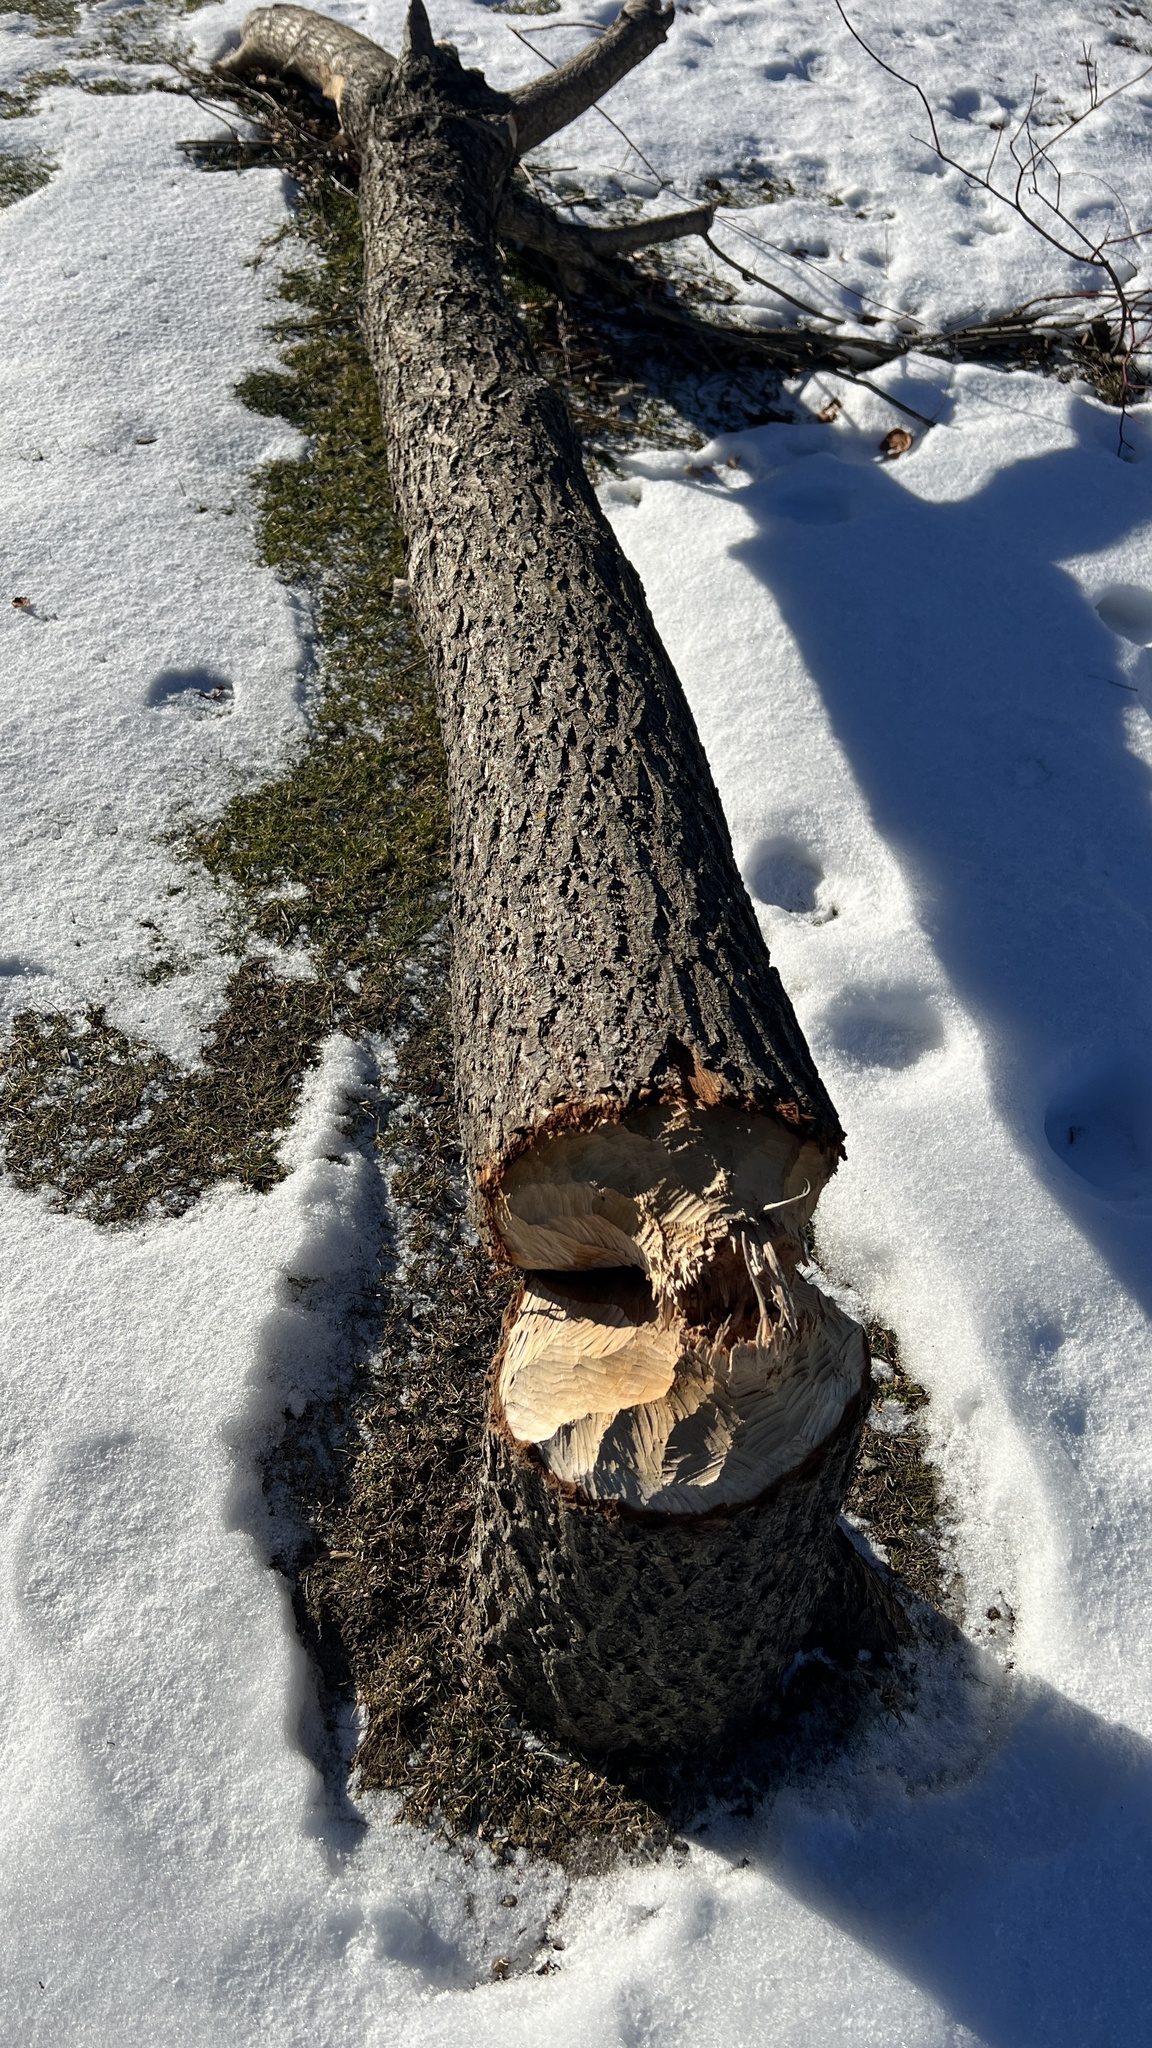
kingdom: Animalia
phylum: Chordata
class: Mammalia
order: Rodentia
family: Castoridae
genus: Castor
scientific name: Castor canadensis
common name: American beaver
